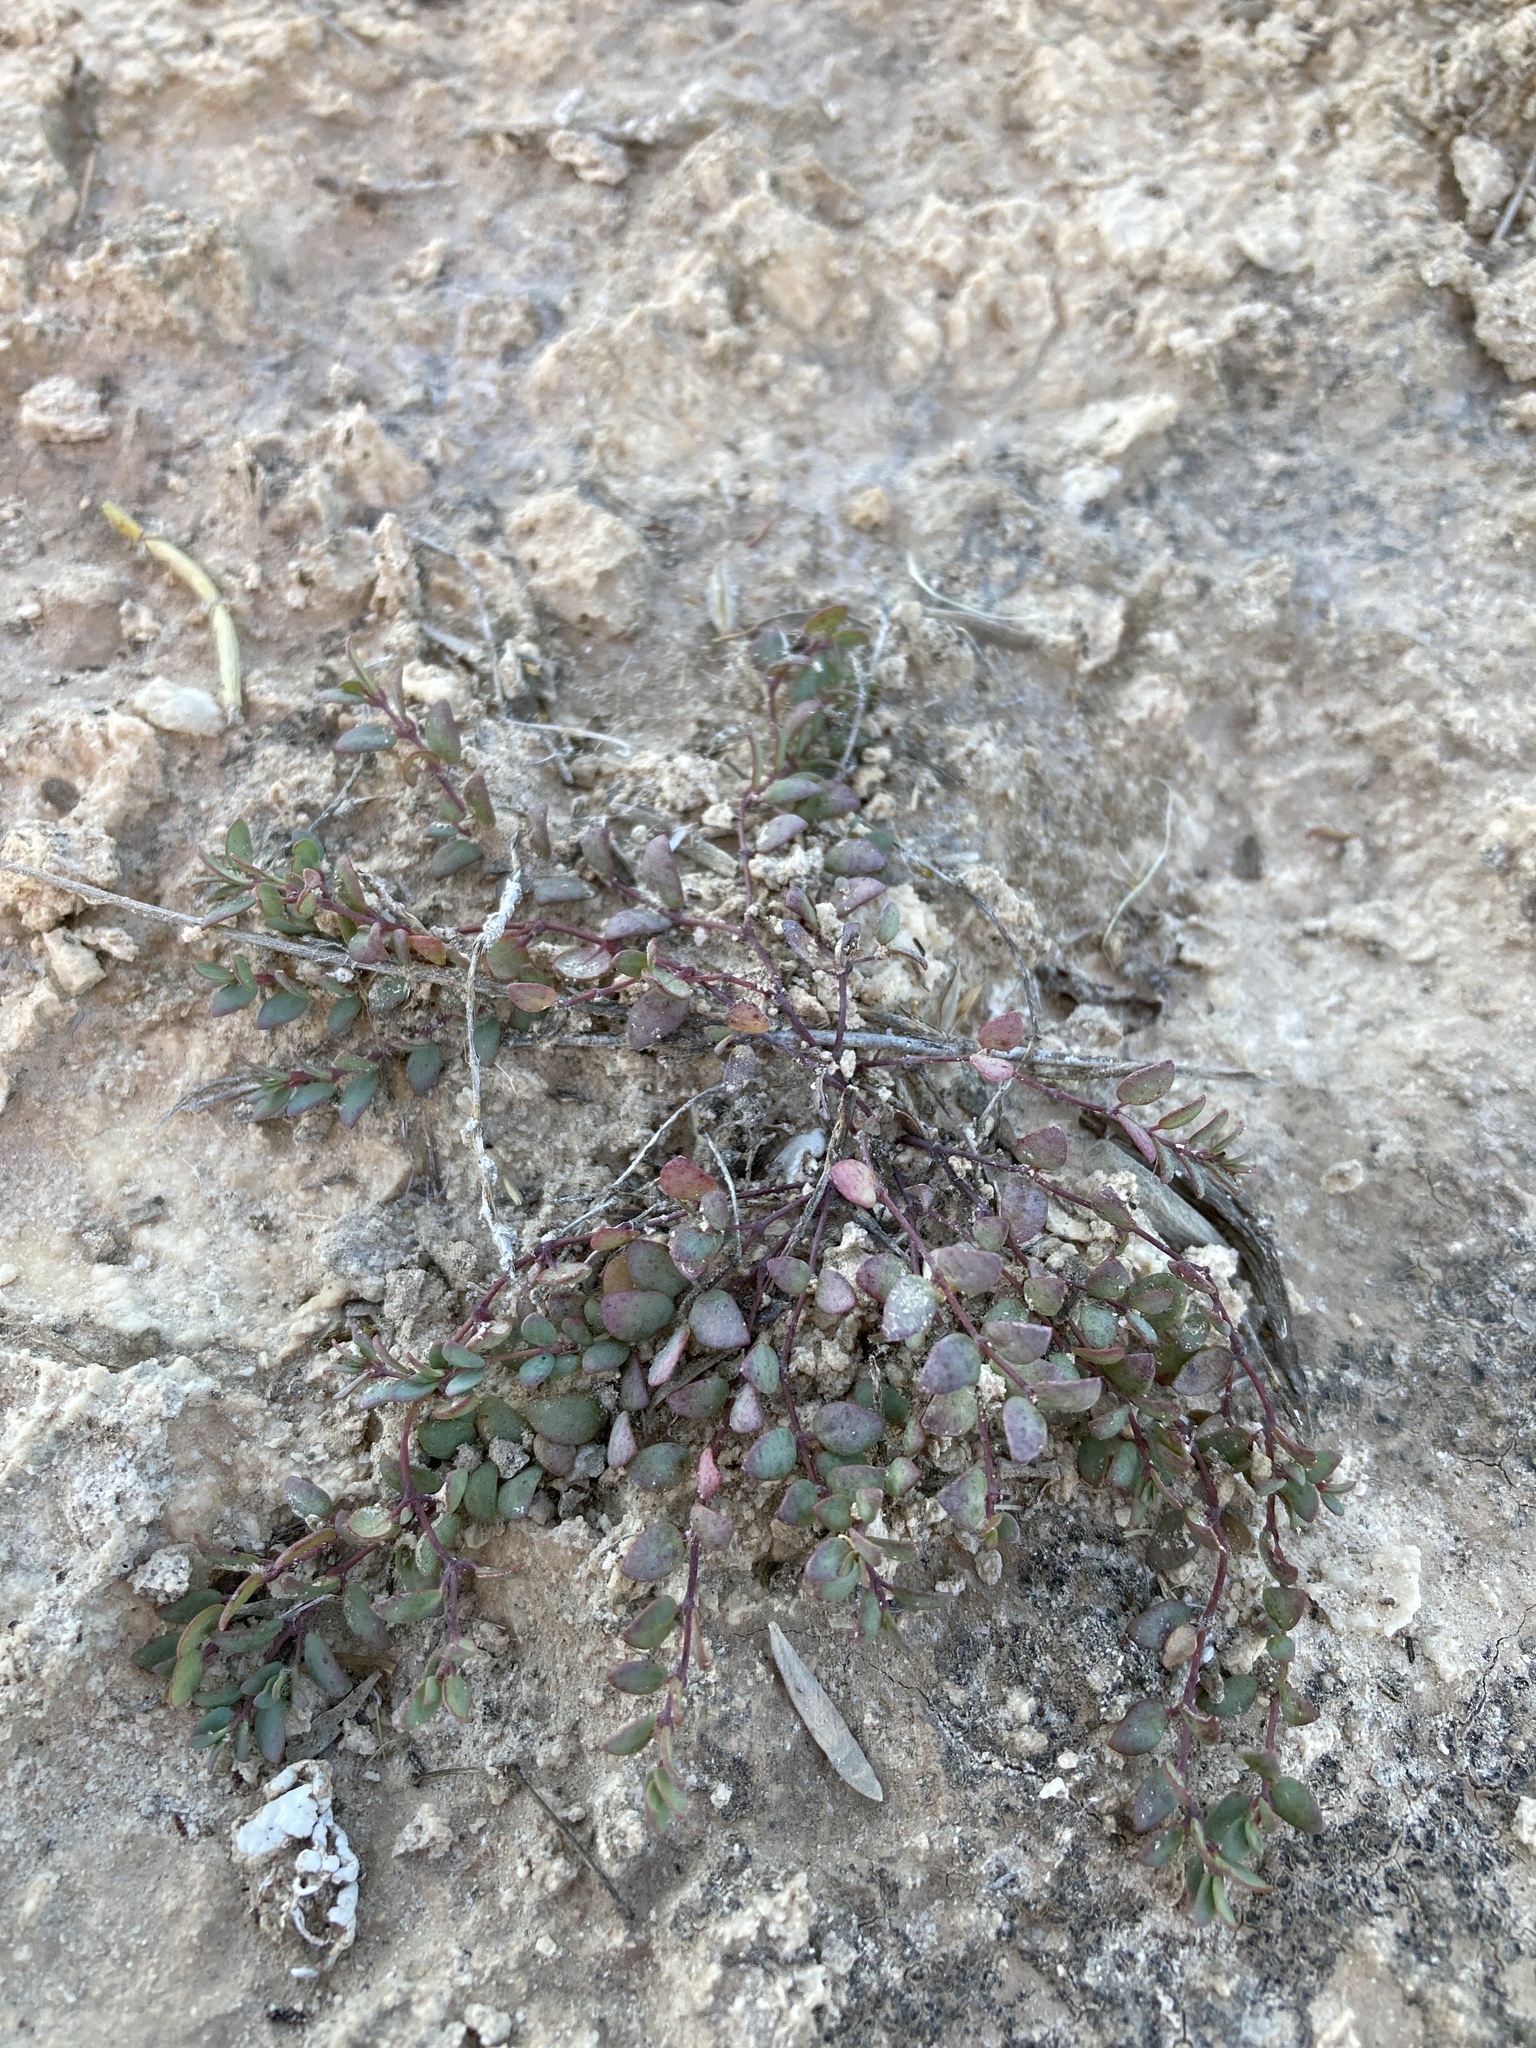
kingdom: Plantae
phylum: Tracheophyta
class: Magnoliopsida
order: Malpighiales
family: Euphorbiaceae
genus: Euphorbia
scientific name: Euphorbia fendleri
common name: Fendler's euphorbia
